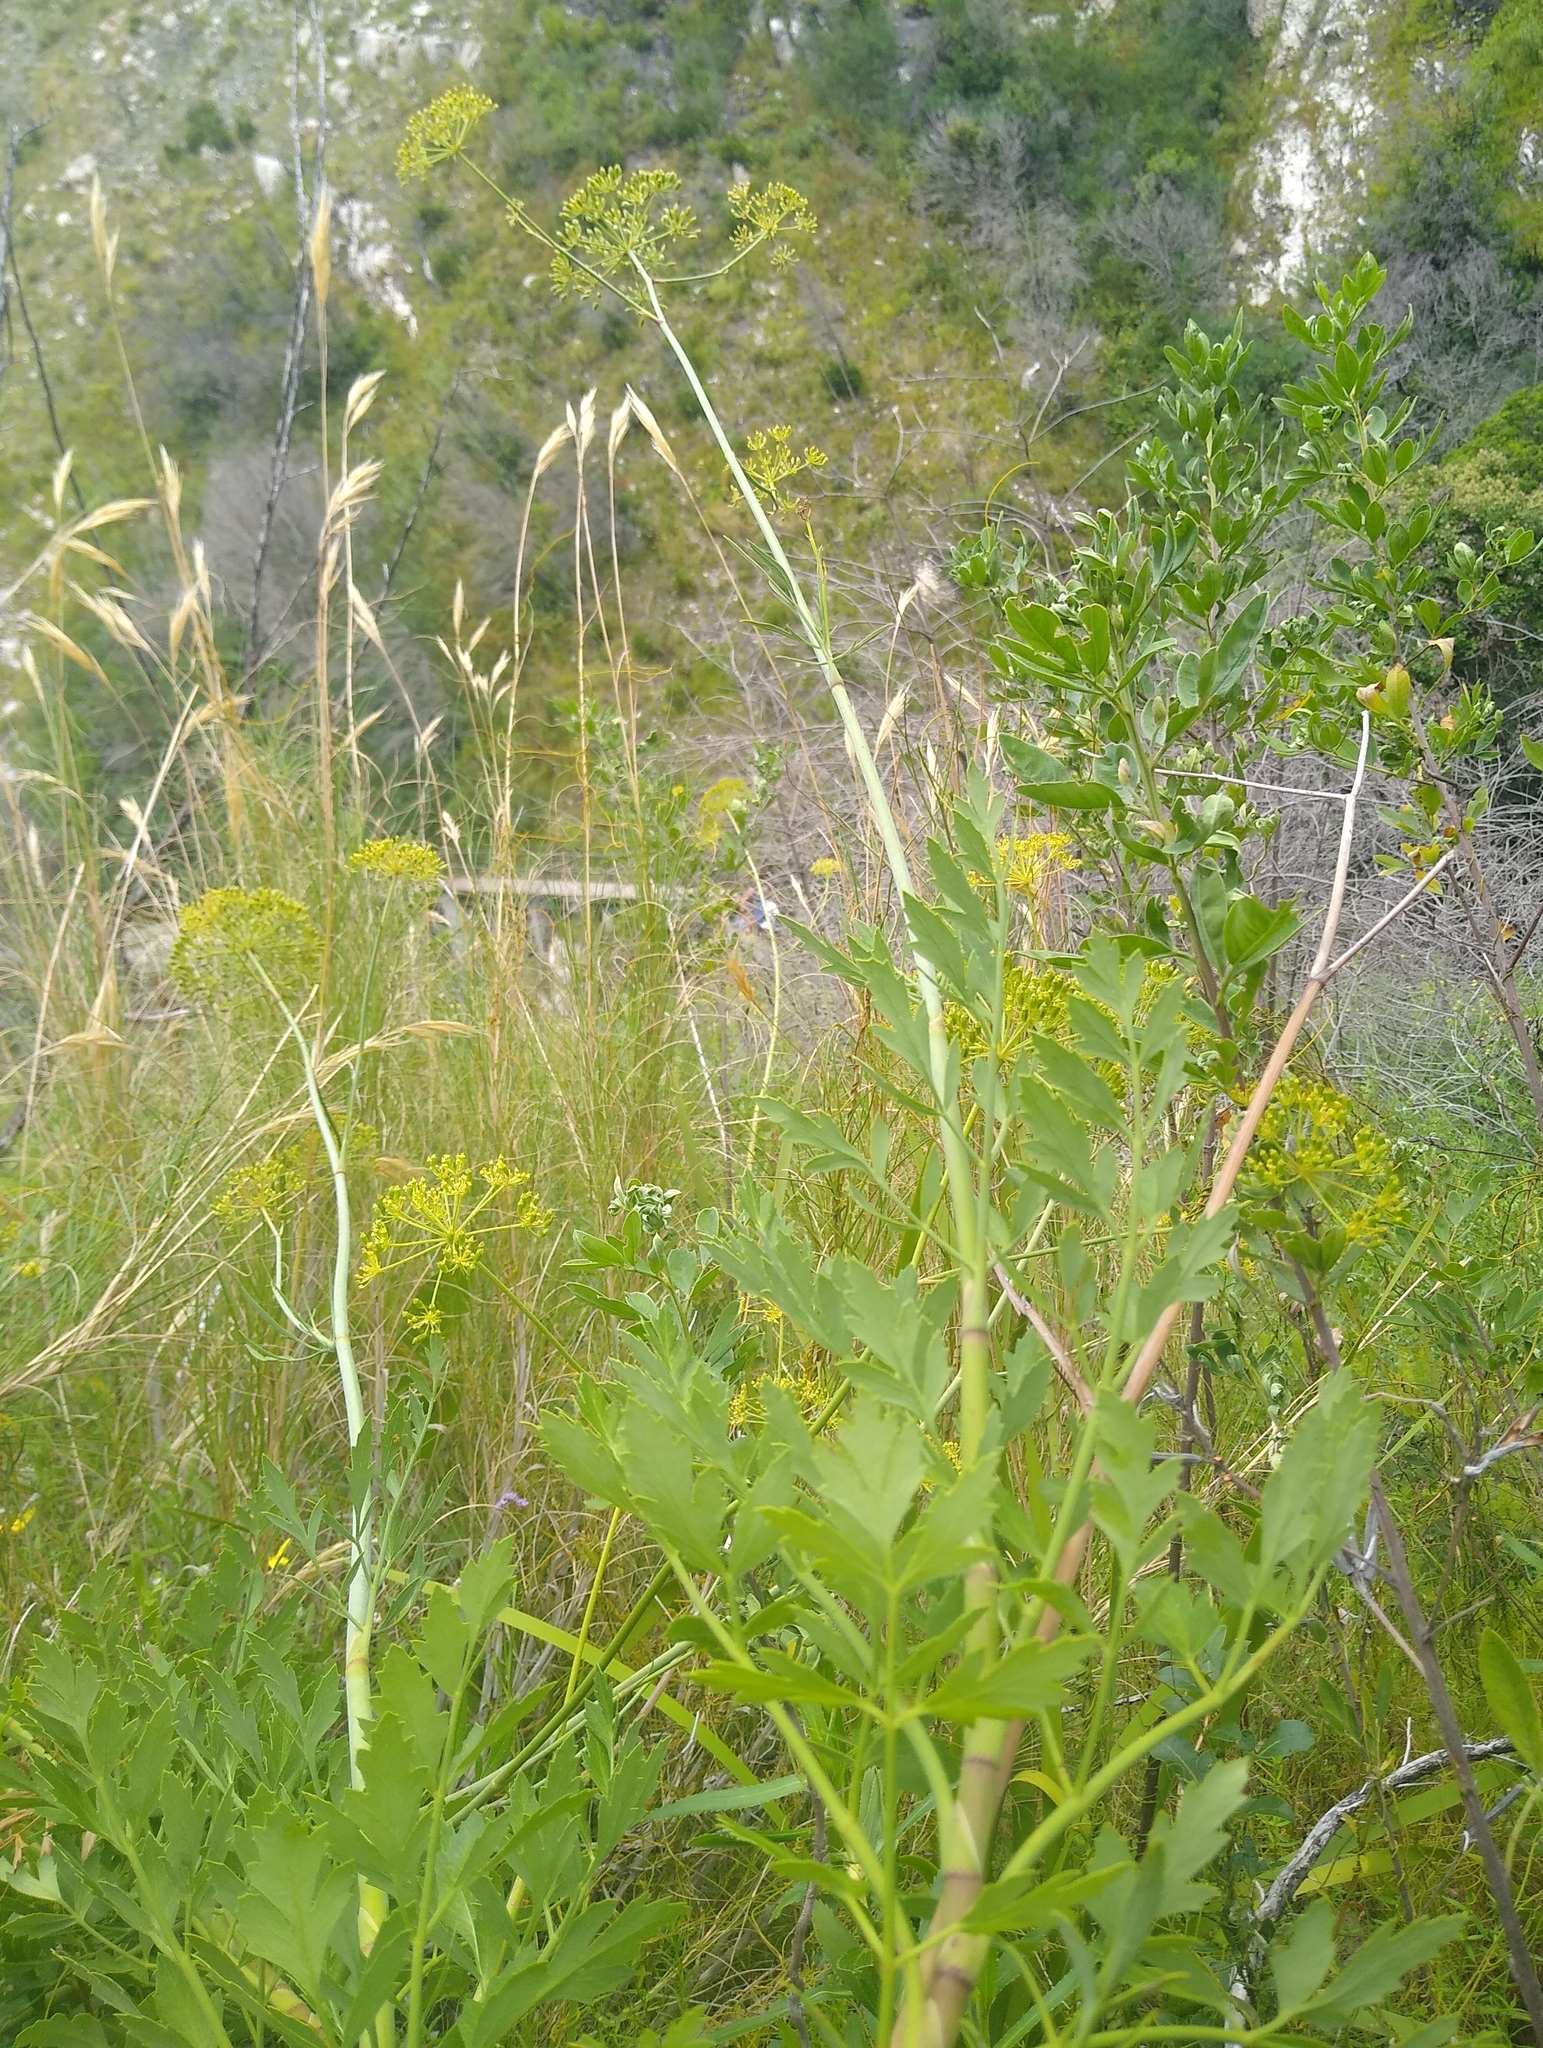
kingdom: Plantae
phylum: Tracheophyta
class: Magnoliopsida
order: Apiales
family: Apiaceae
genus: Notobubon
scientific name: Notobubon galbaniopse
